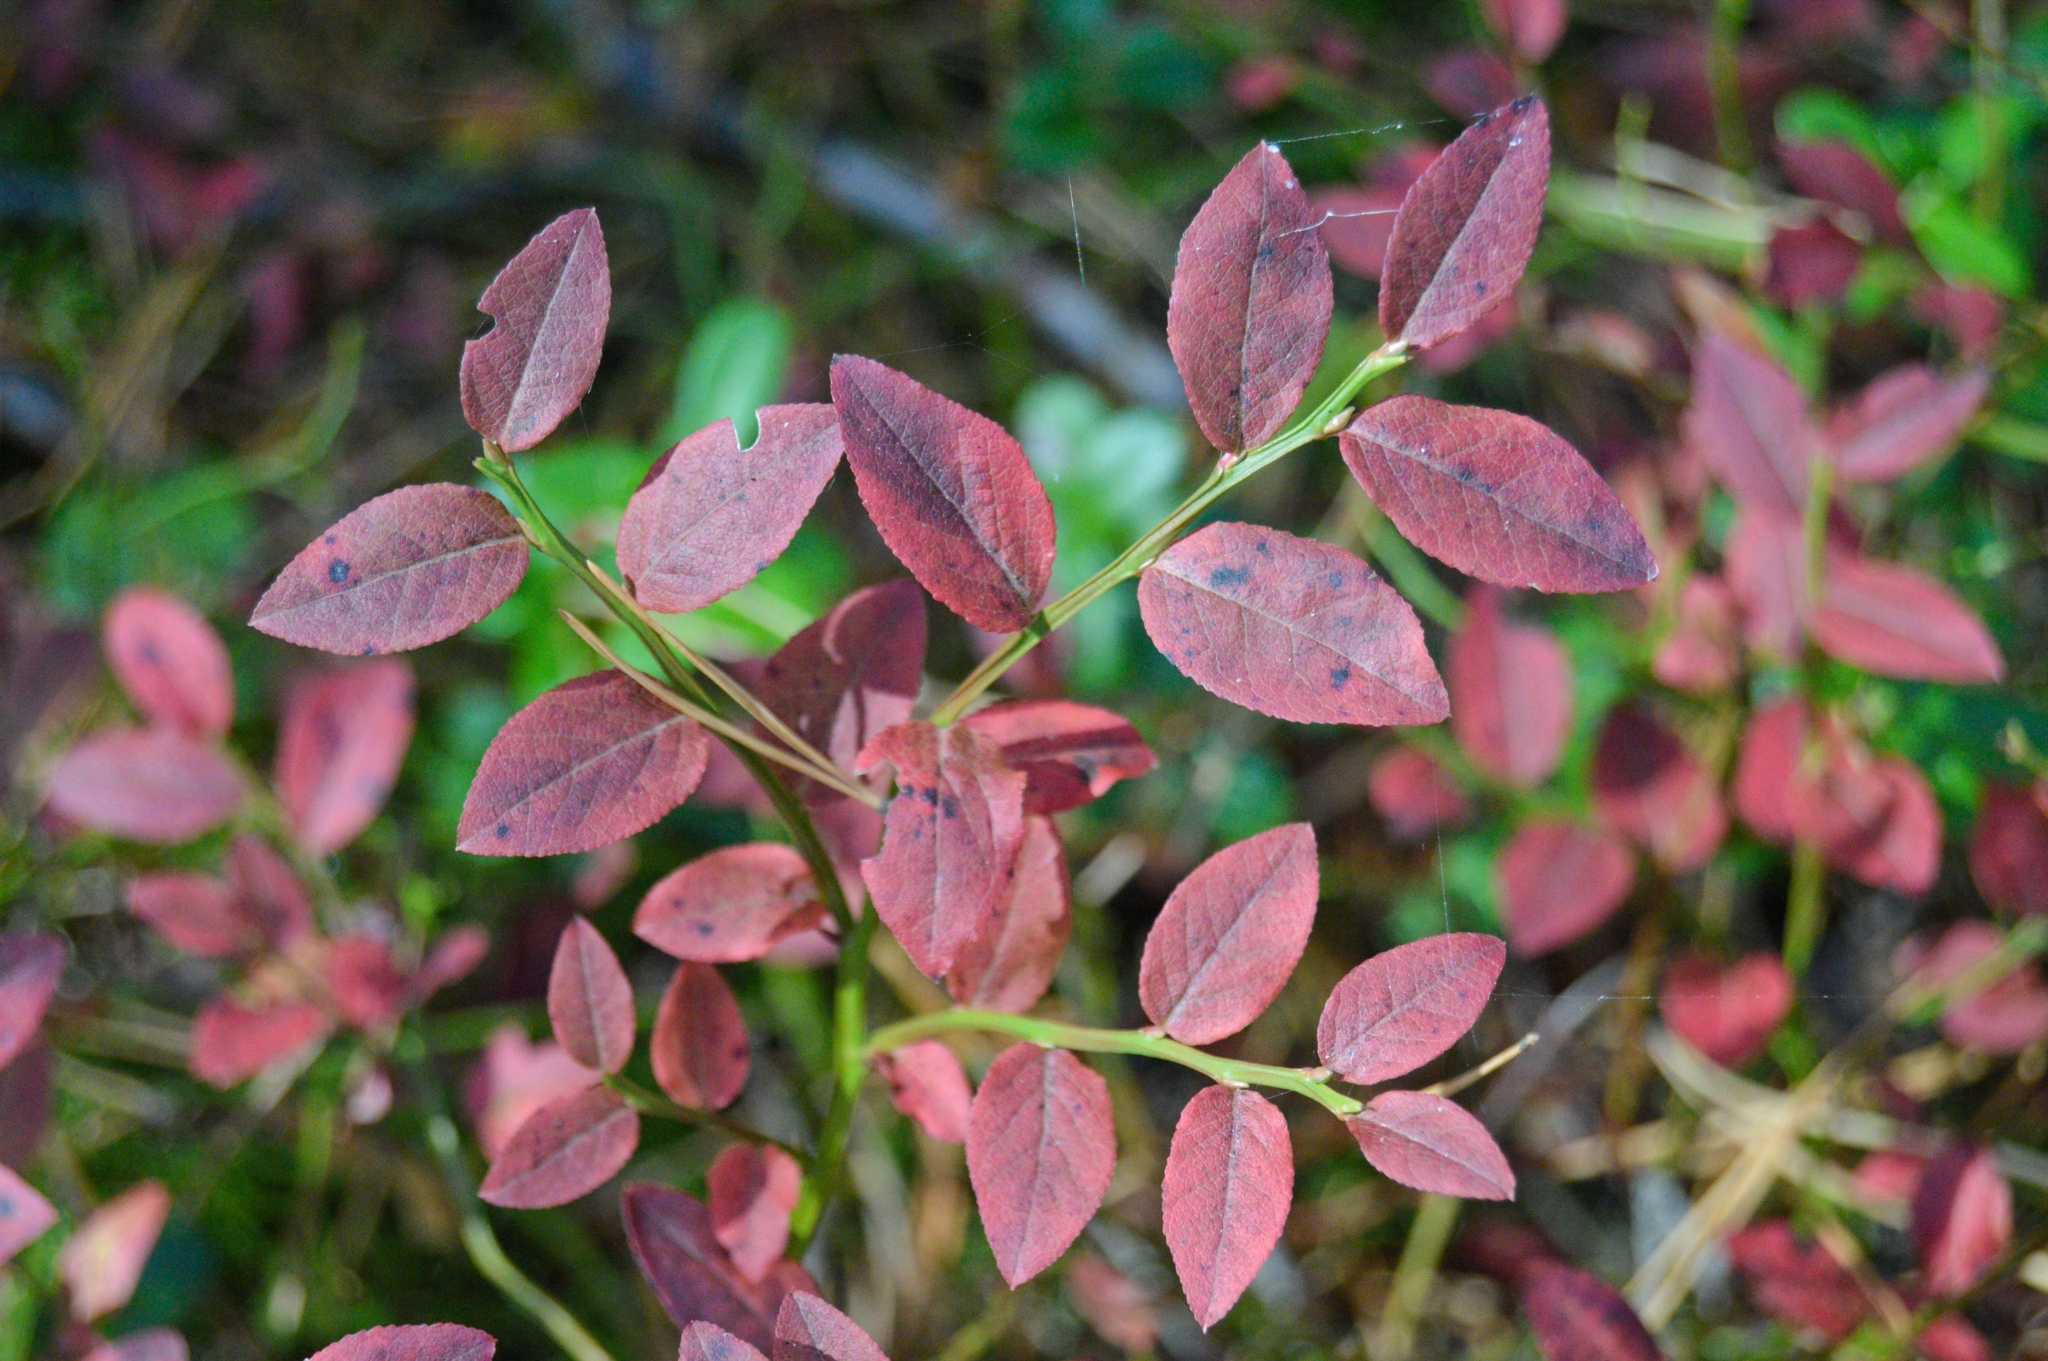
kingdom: Plantae
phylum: Tracheophyta
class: Magnoliopsida
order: Ericales
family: Ericaceae
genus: Vaccinium
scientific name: Vaccinium myrtillus
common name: Bilberry
